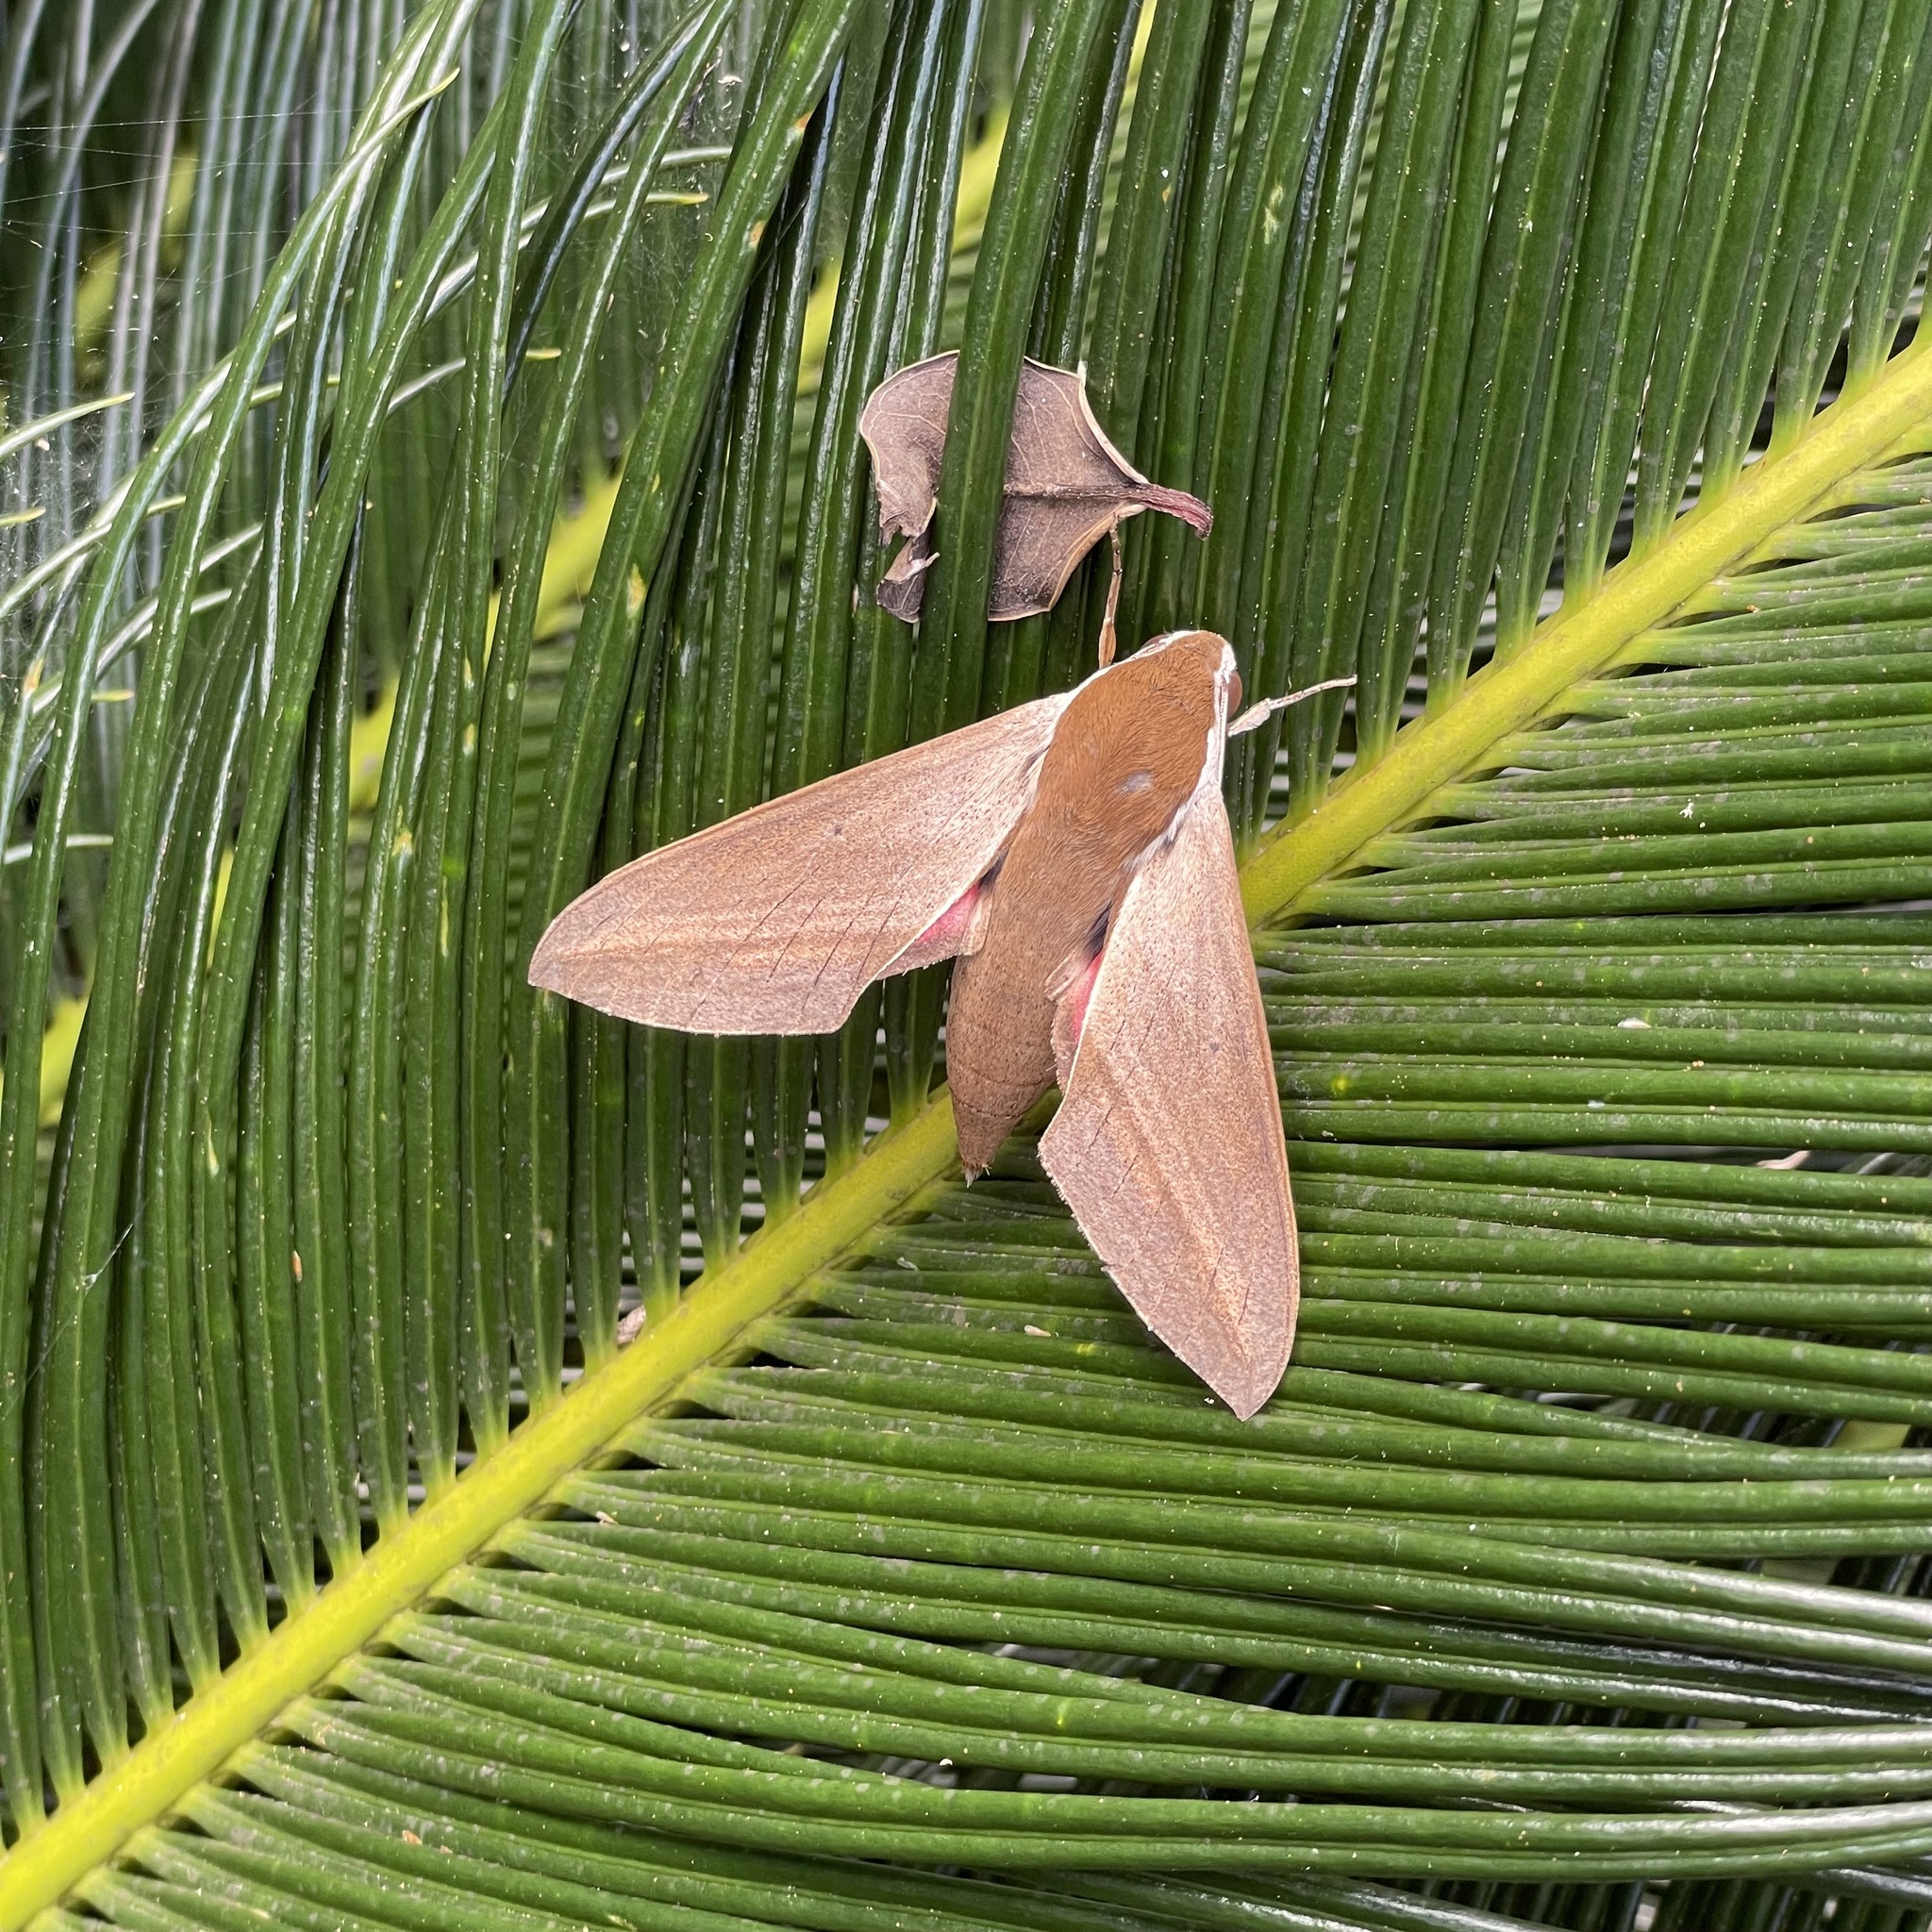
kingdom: Animalia
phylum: Arthropoda
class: Insecta
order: Lepidoptera
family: Sphingidae
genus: Theretra
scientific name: Theretra alecto
